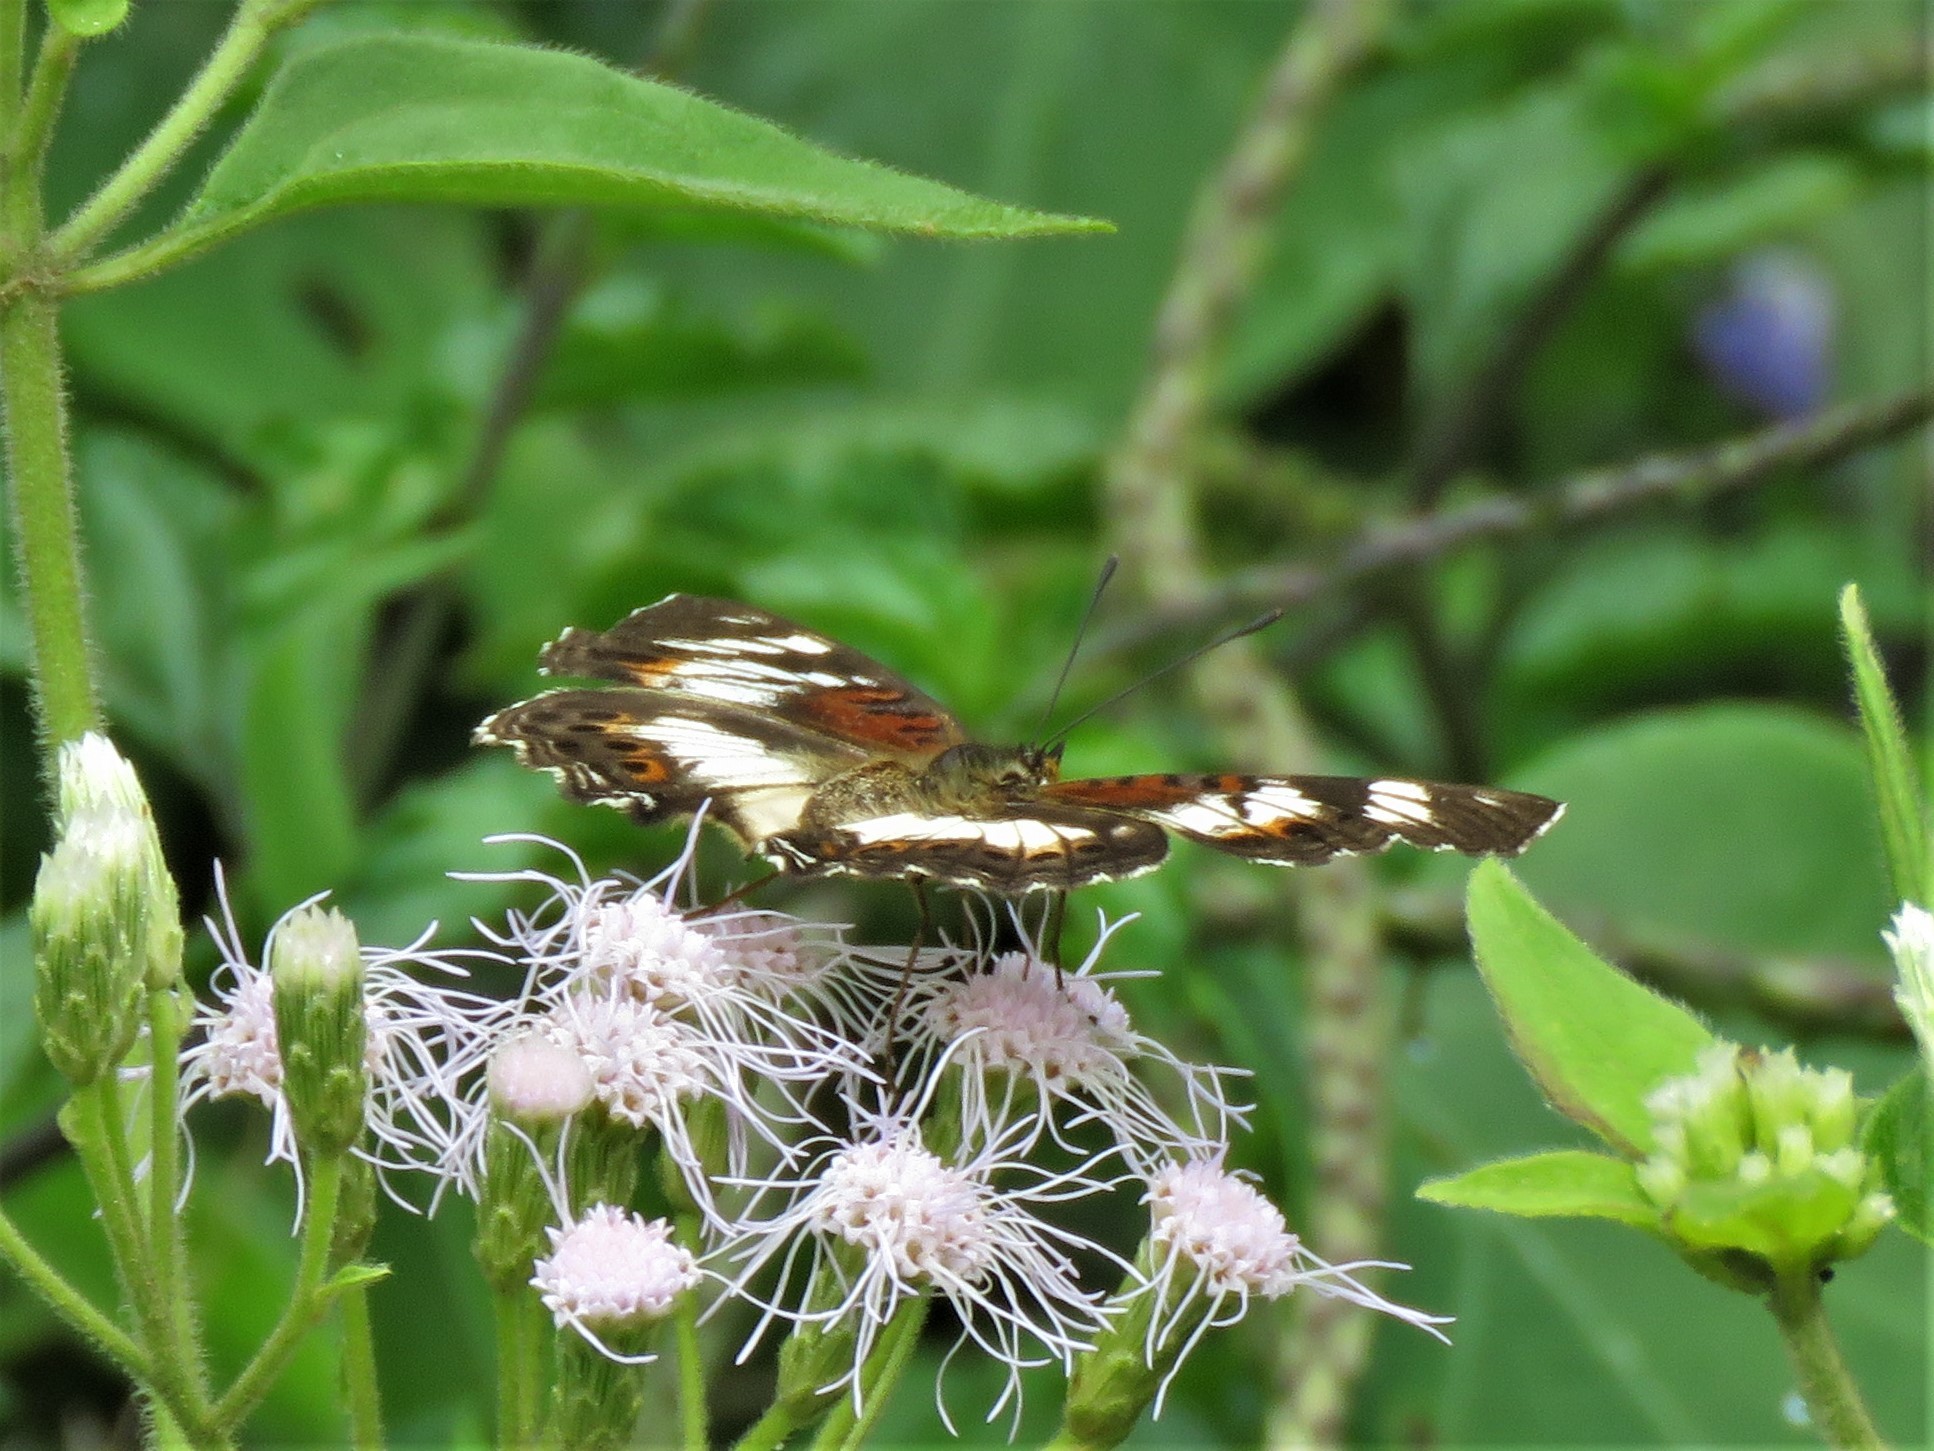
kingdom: Animalia
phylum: Arthropoda
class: Insecta
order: Lepidoptera
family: Nymphalidae
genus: Junonia
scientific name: Junonia sophia
